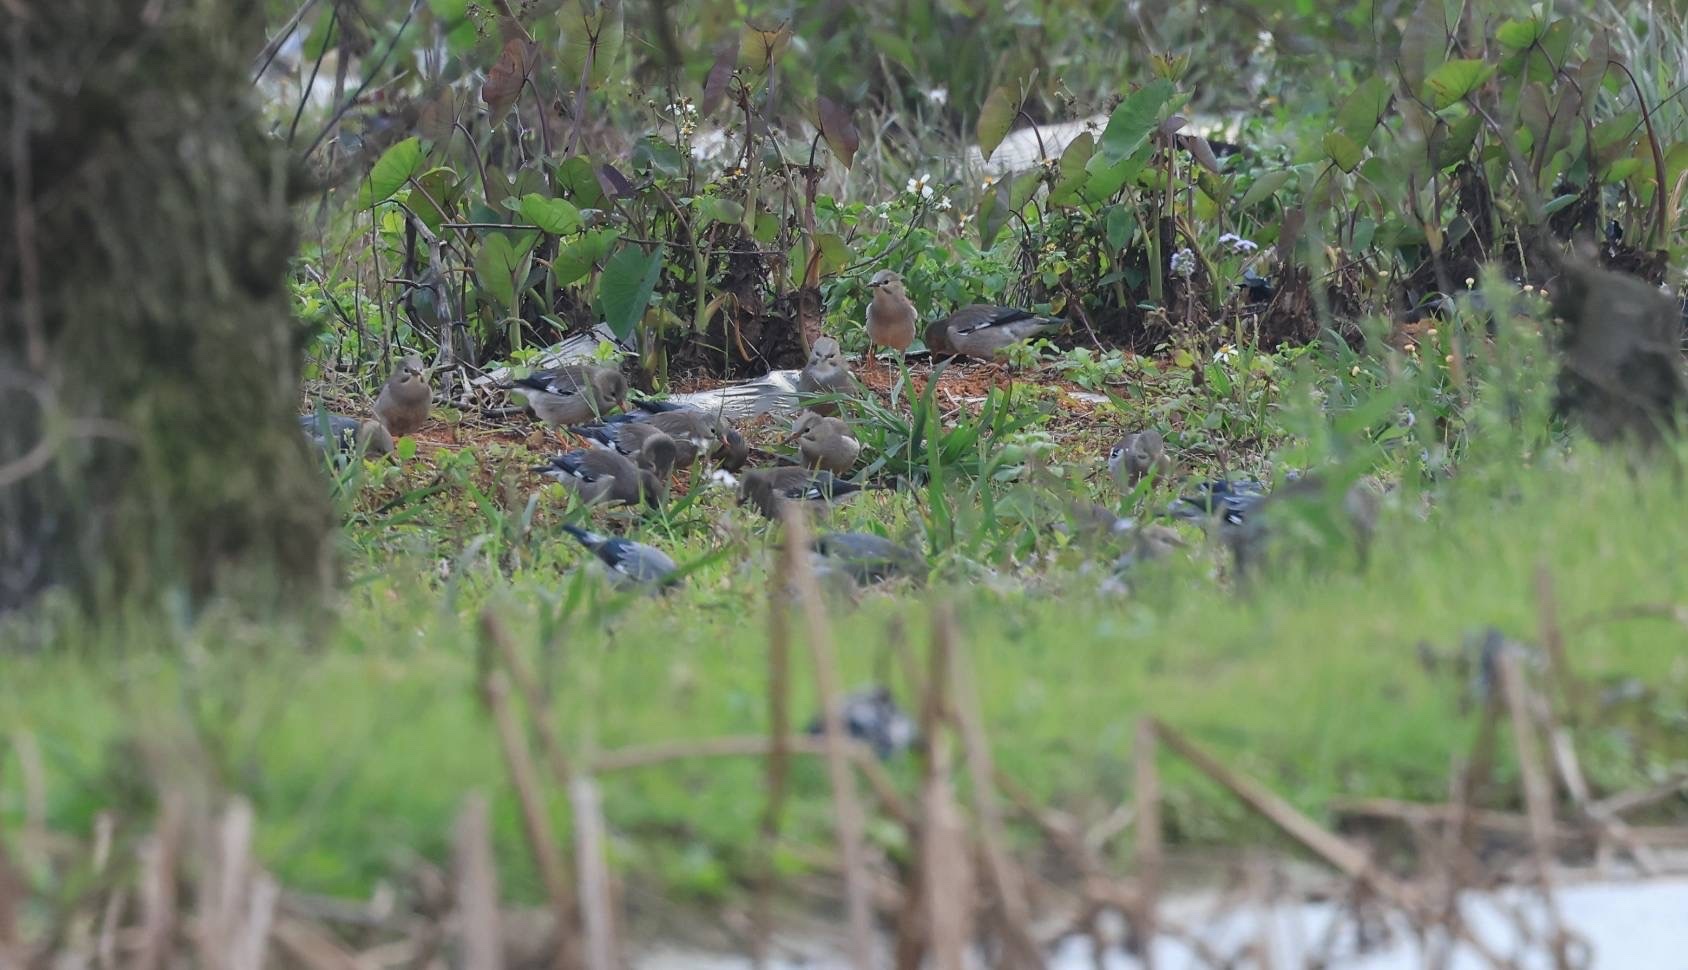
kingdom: Animalia
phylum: Chordata
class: Aves
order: Passeriformes
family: Sturnidae
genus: Spodiopsar
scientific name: Spodiopsar sericeus
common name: Red-billed starling
